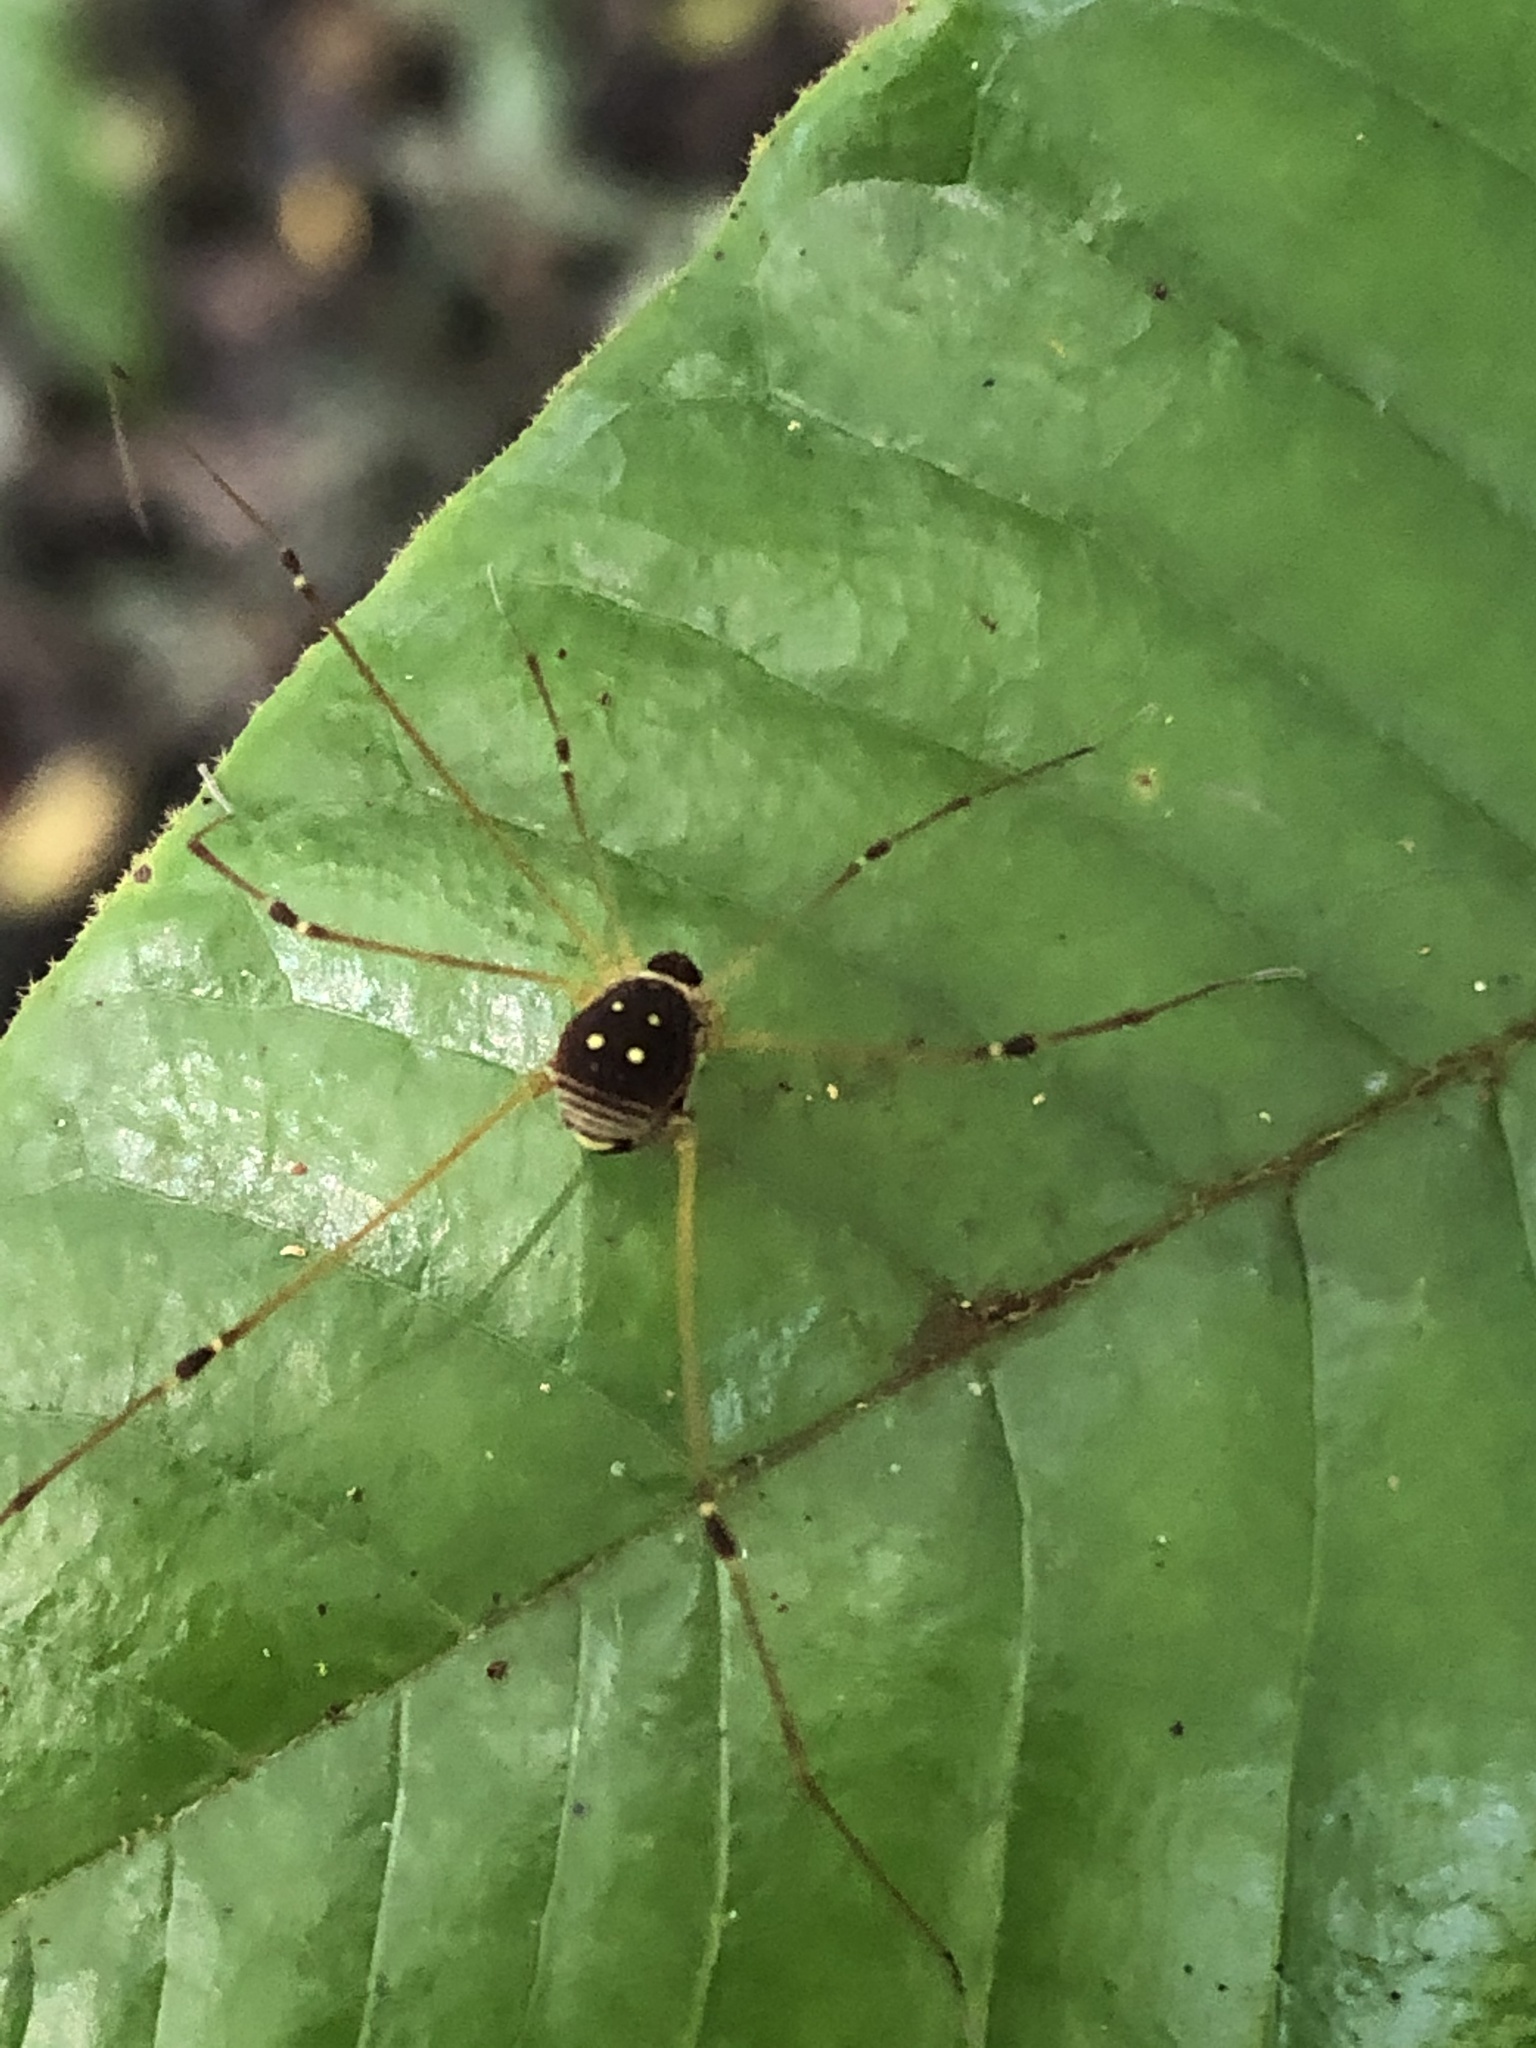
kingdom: Animalia
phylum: Arthropoda
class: Arachnida
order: Opiliones
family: Cosmetidae
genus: Protus
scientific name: Protus bolivari
